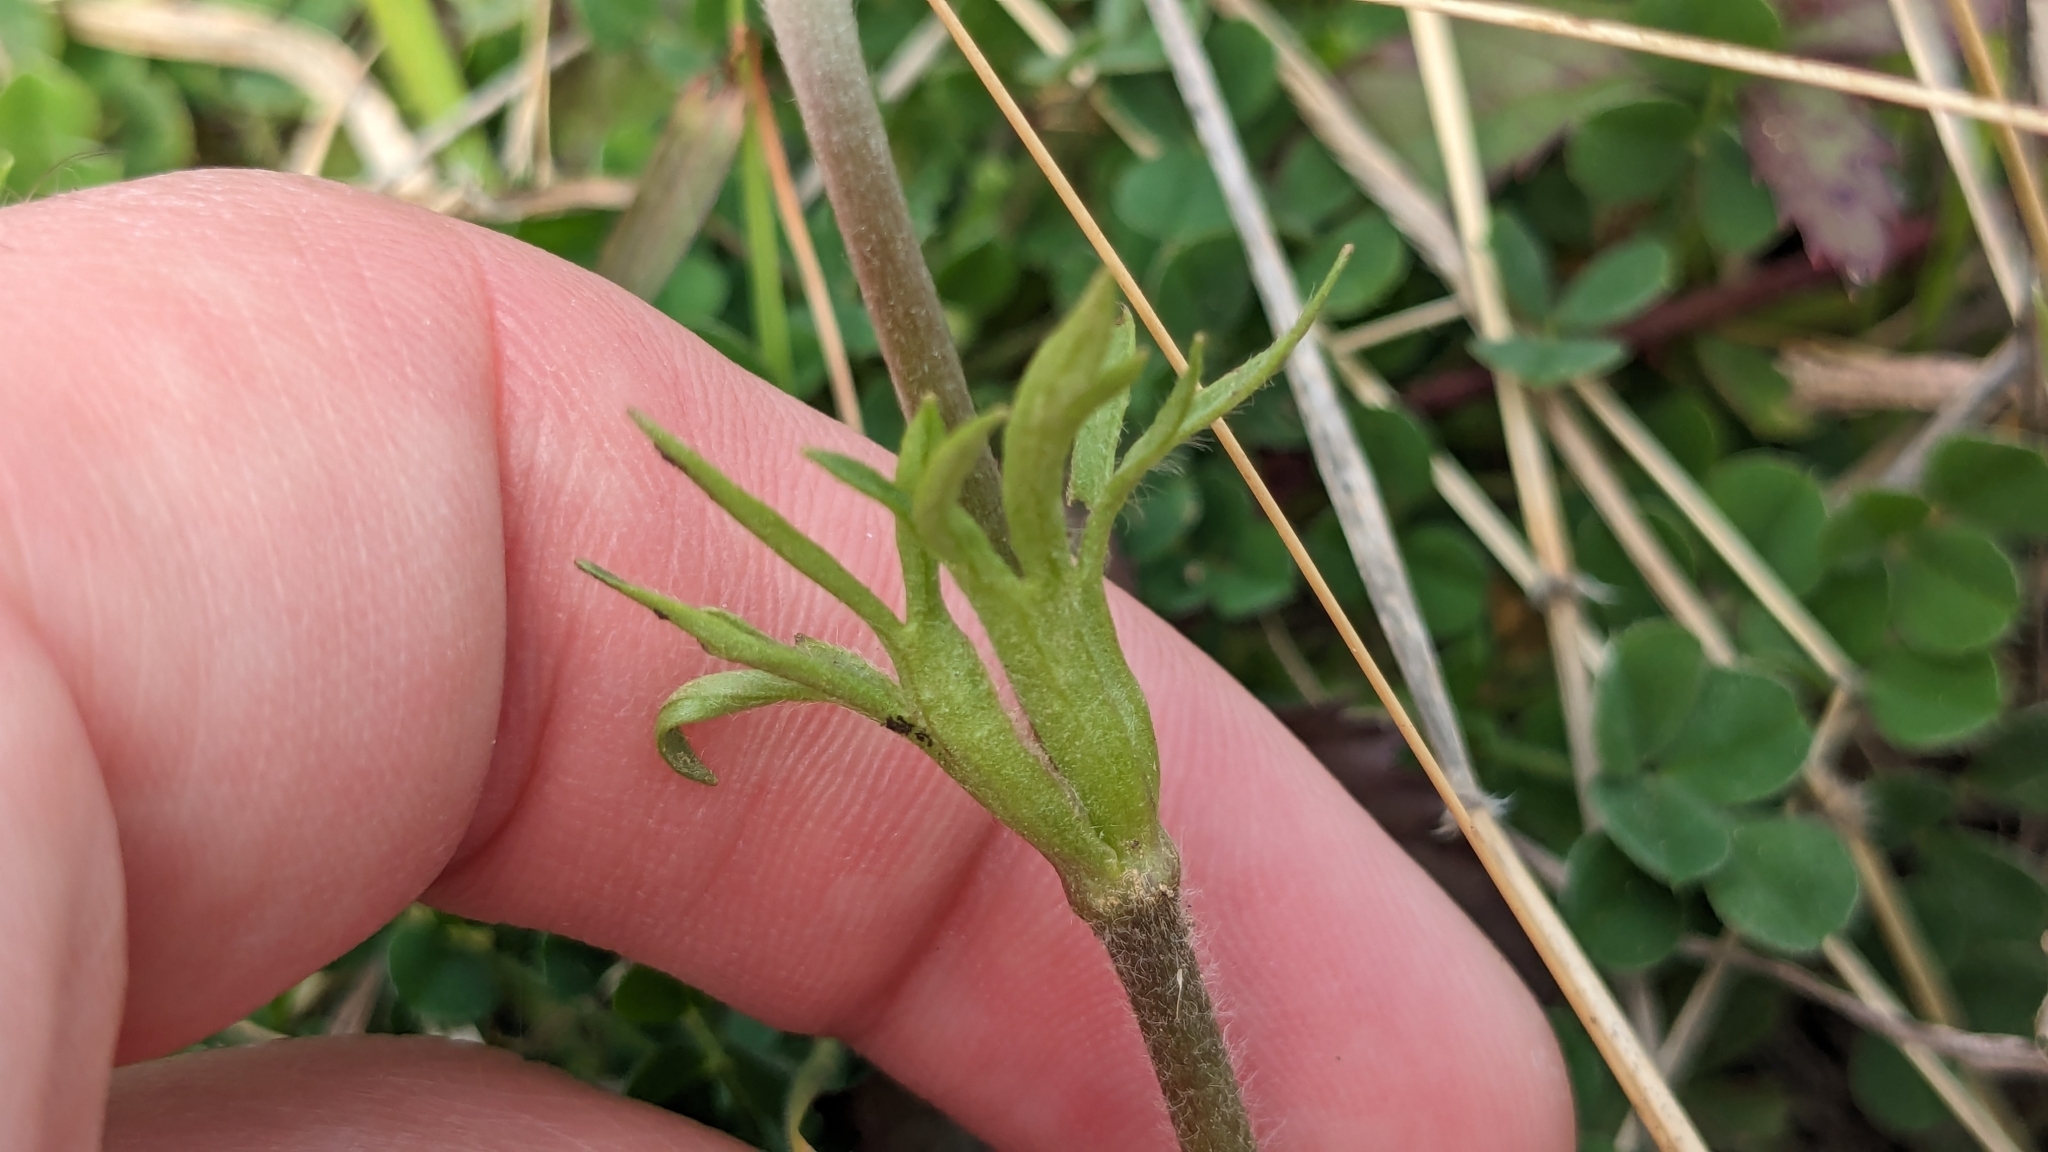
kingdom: Plantae
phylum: Tracheophyta
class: Magnoliopsida
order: Ranunculales
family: Ranunculaceae
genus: Anemone
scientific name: Anemone berlandieri
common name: Ten-petal anemone
